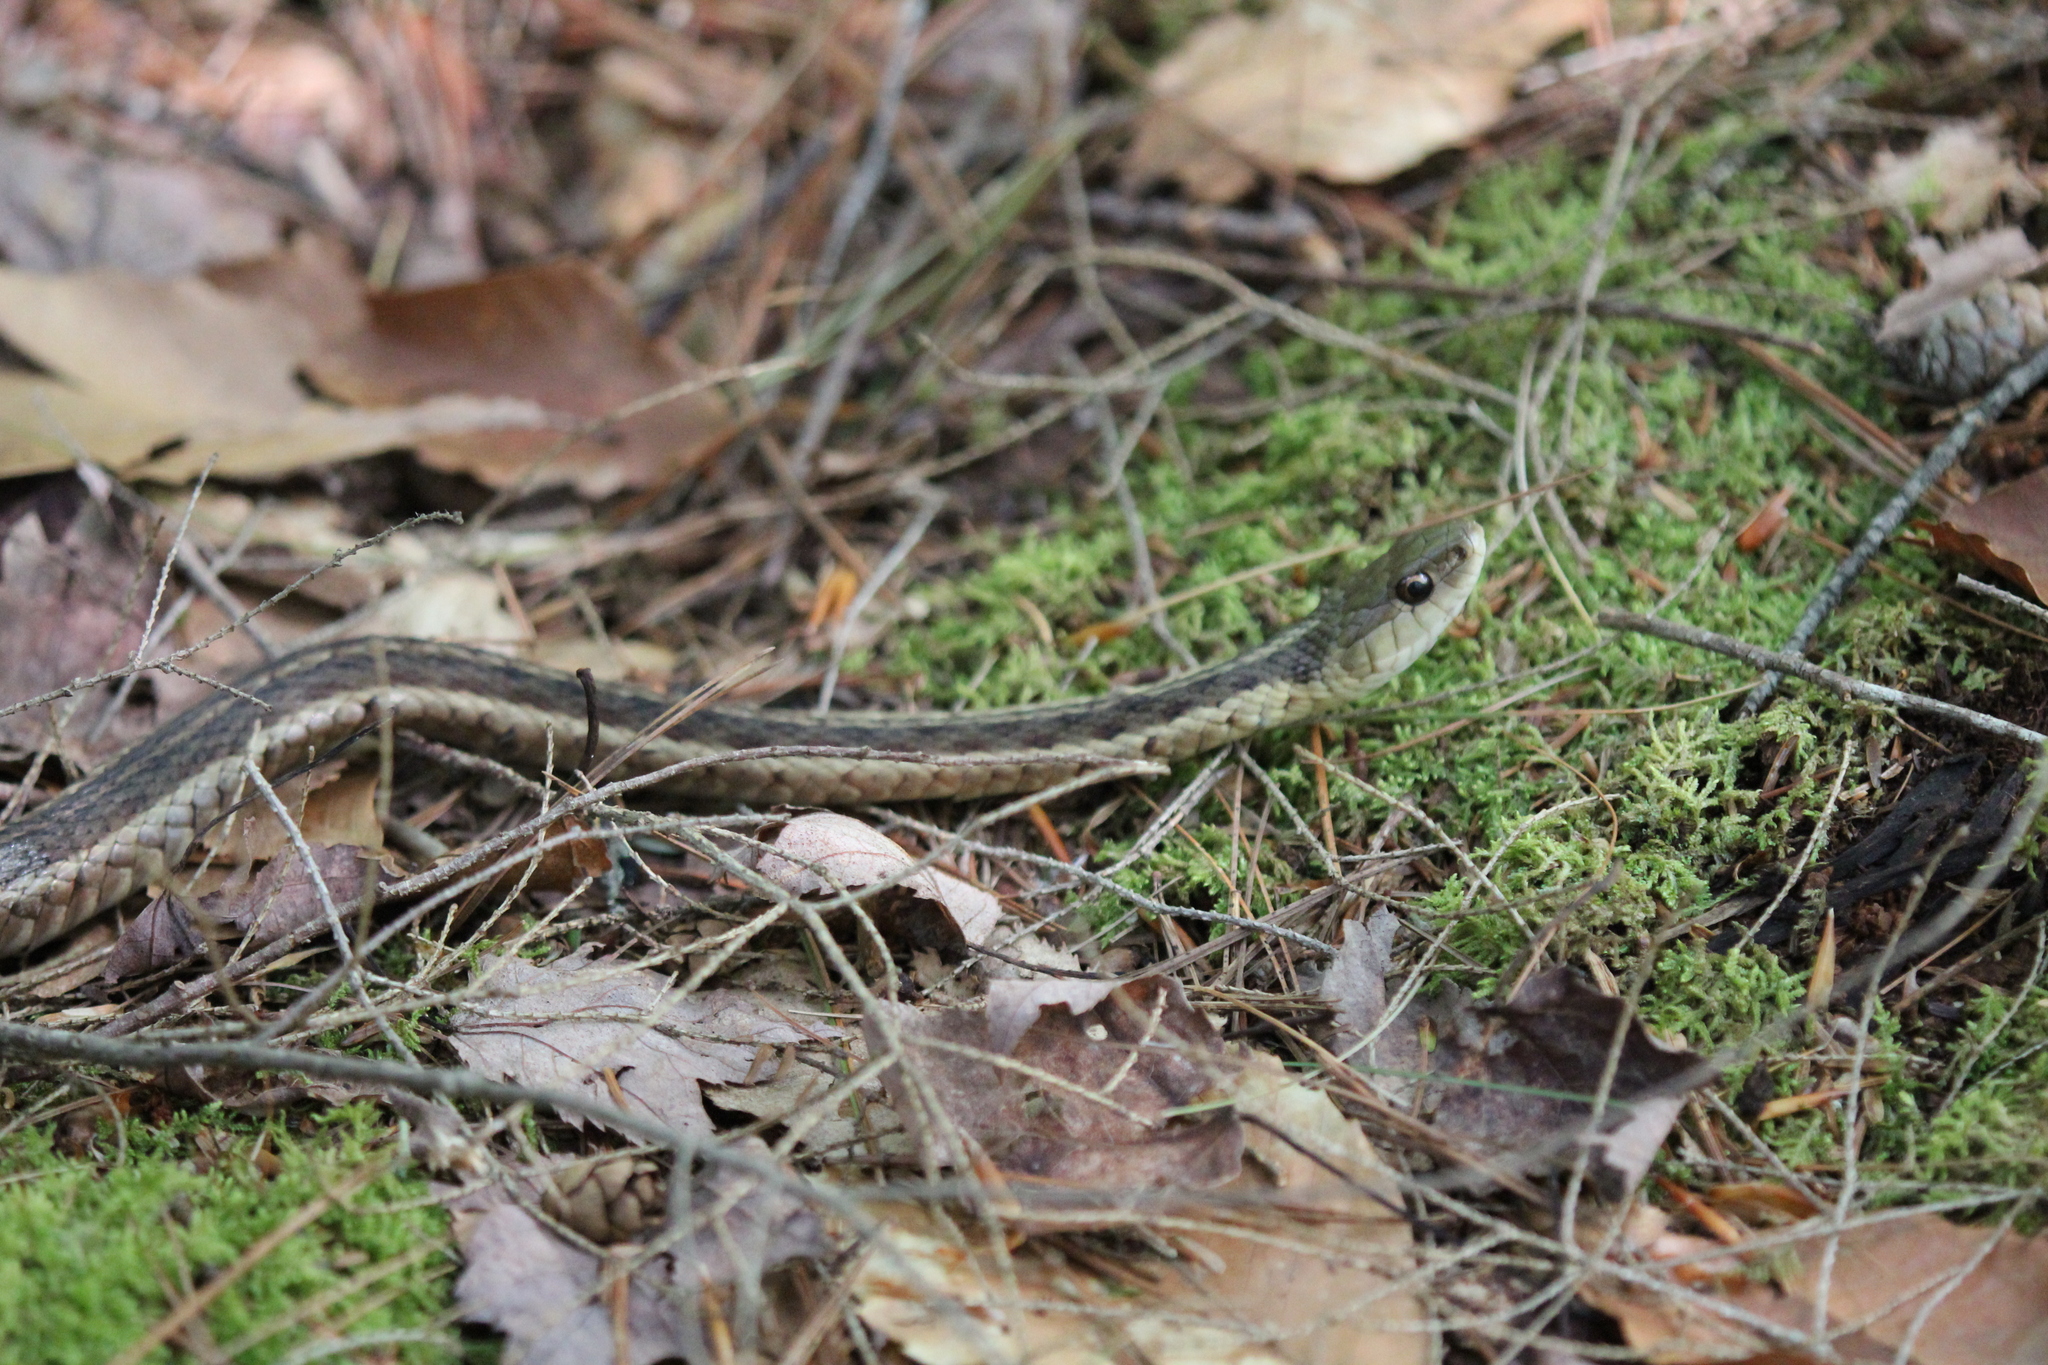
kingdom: Animalia
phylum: Chordata
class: Squamata
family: Colubridae
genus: Thamnophis
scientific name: Thamnophis sirtalis
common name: Common garter snake
